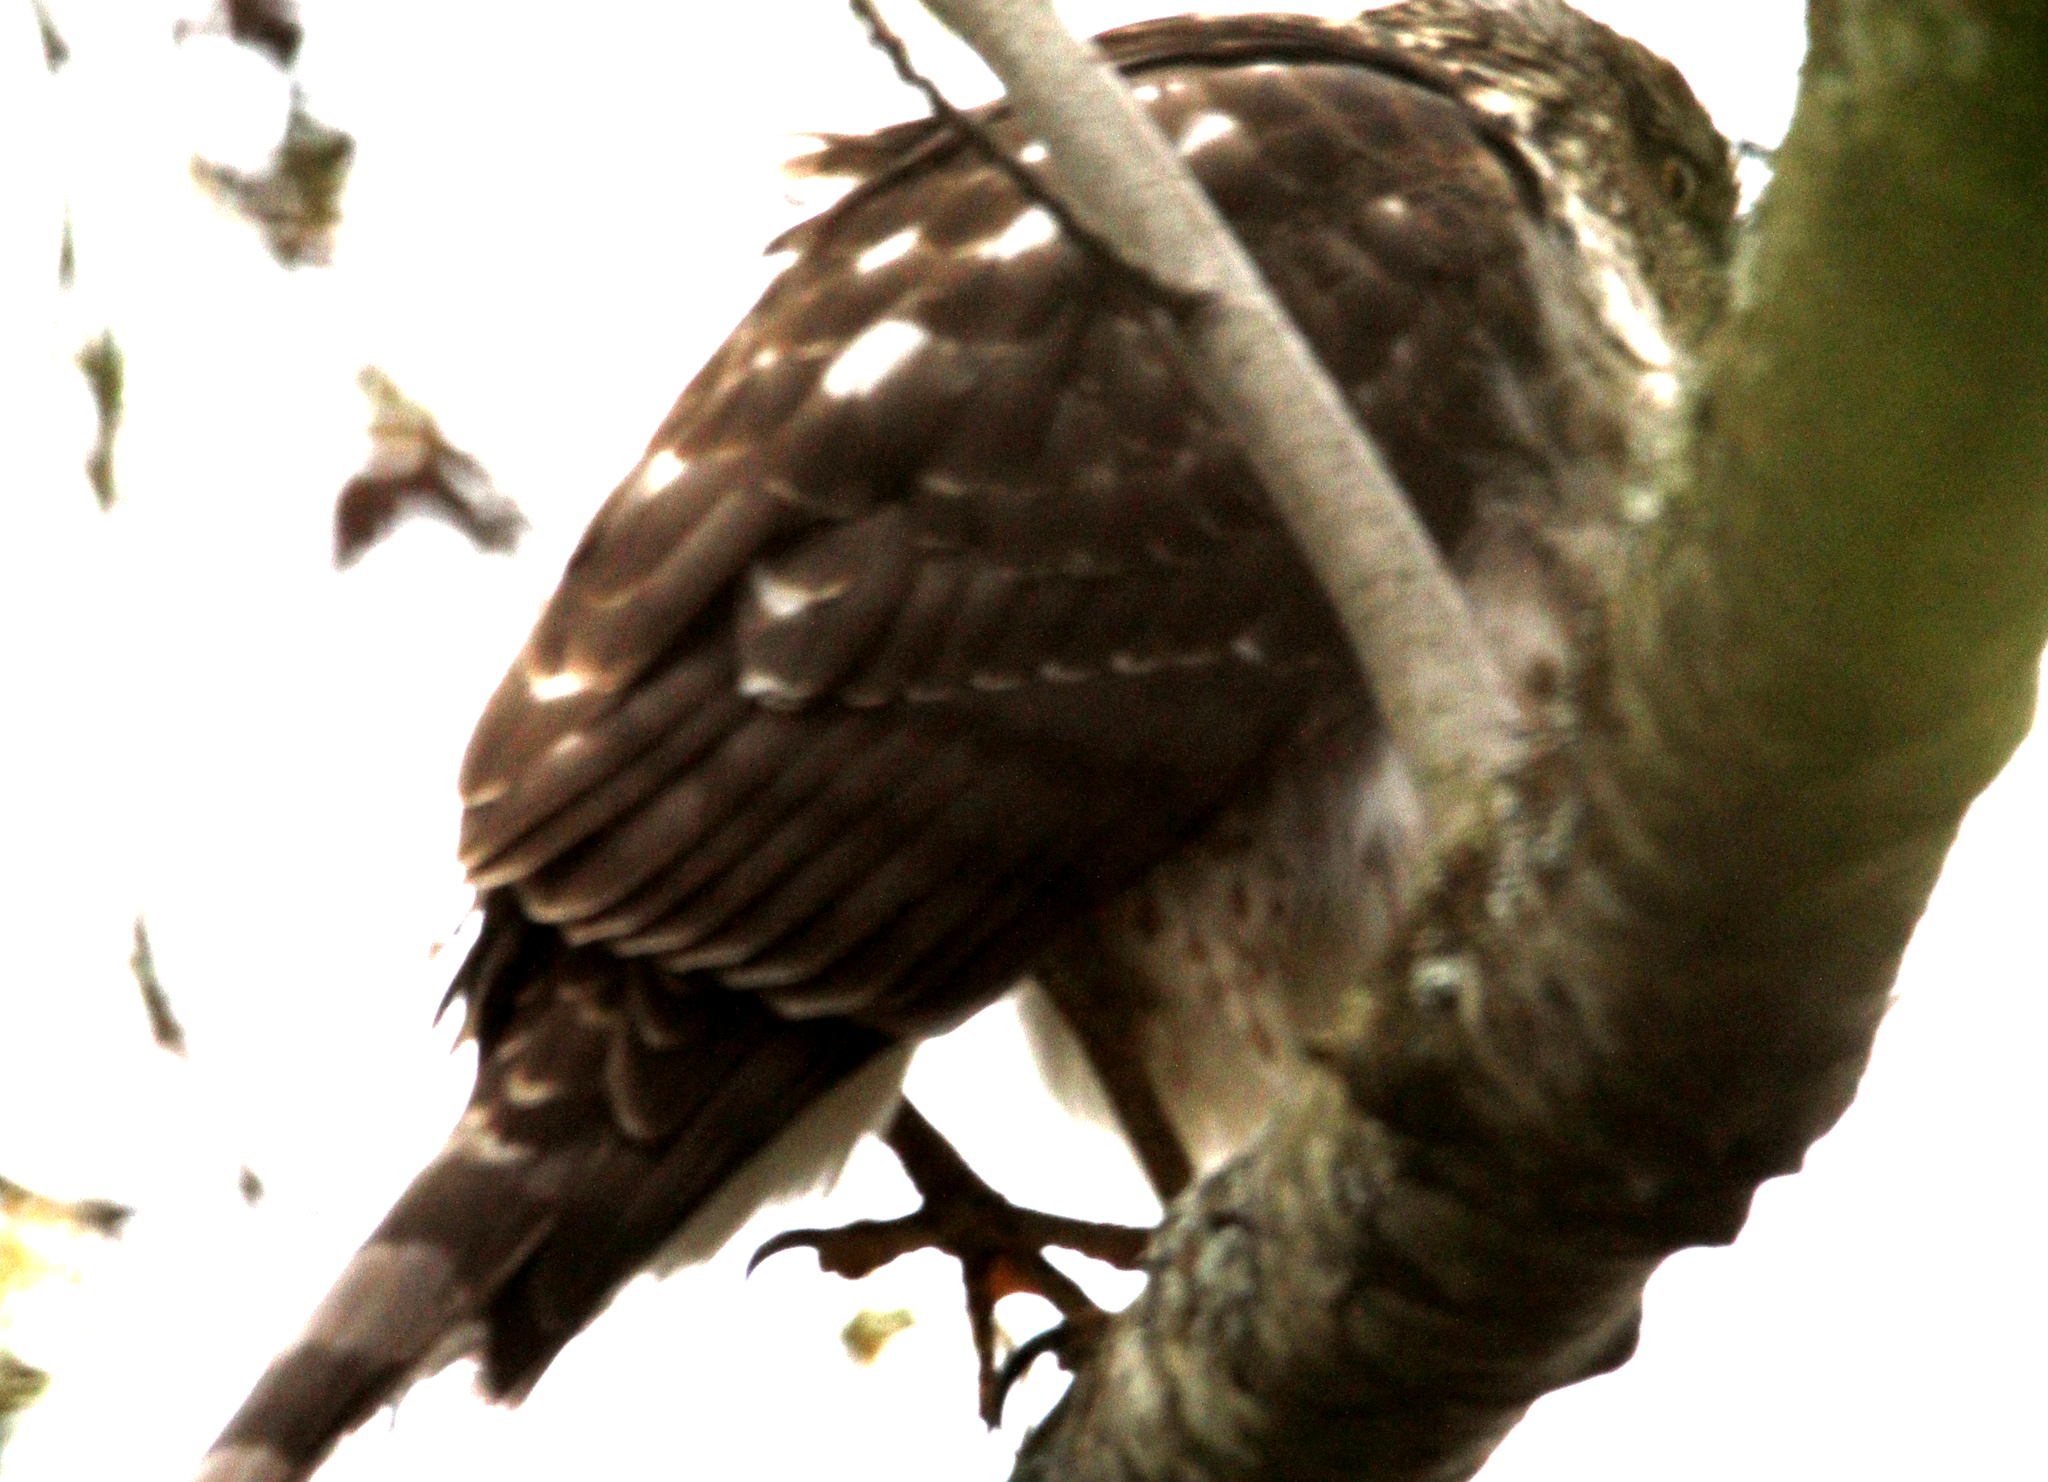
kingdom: Animalia
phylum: Chordata
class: Aves
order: Accipitriformes
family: Accipitridae
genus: Accipiter
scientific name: Accipiter cooperii
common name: Cooper's hawk
